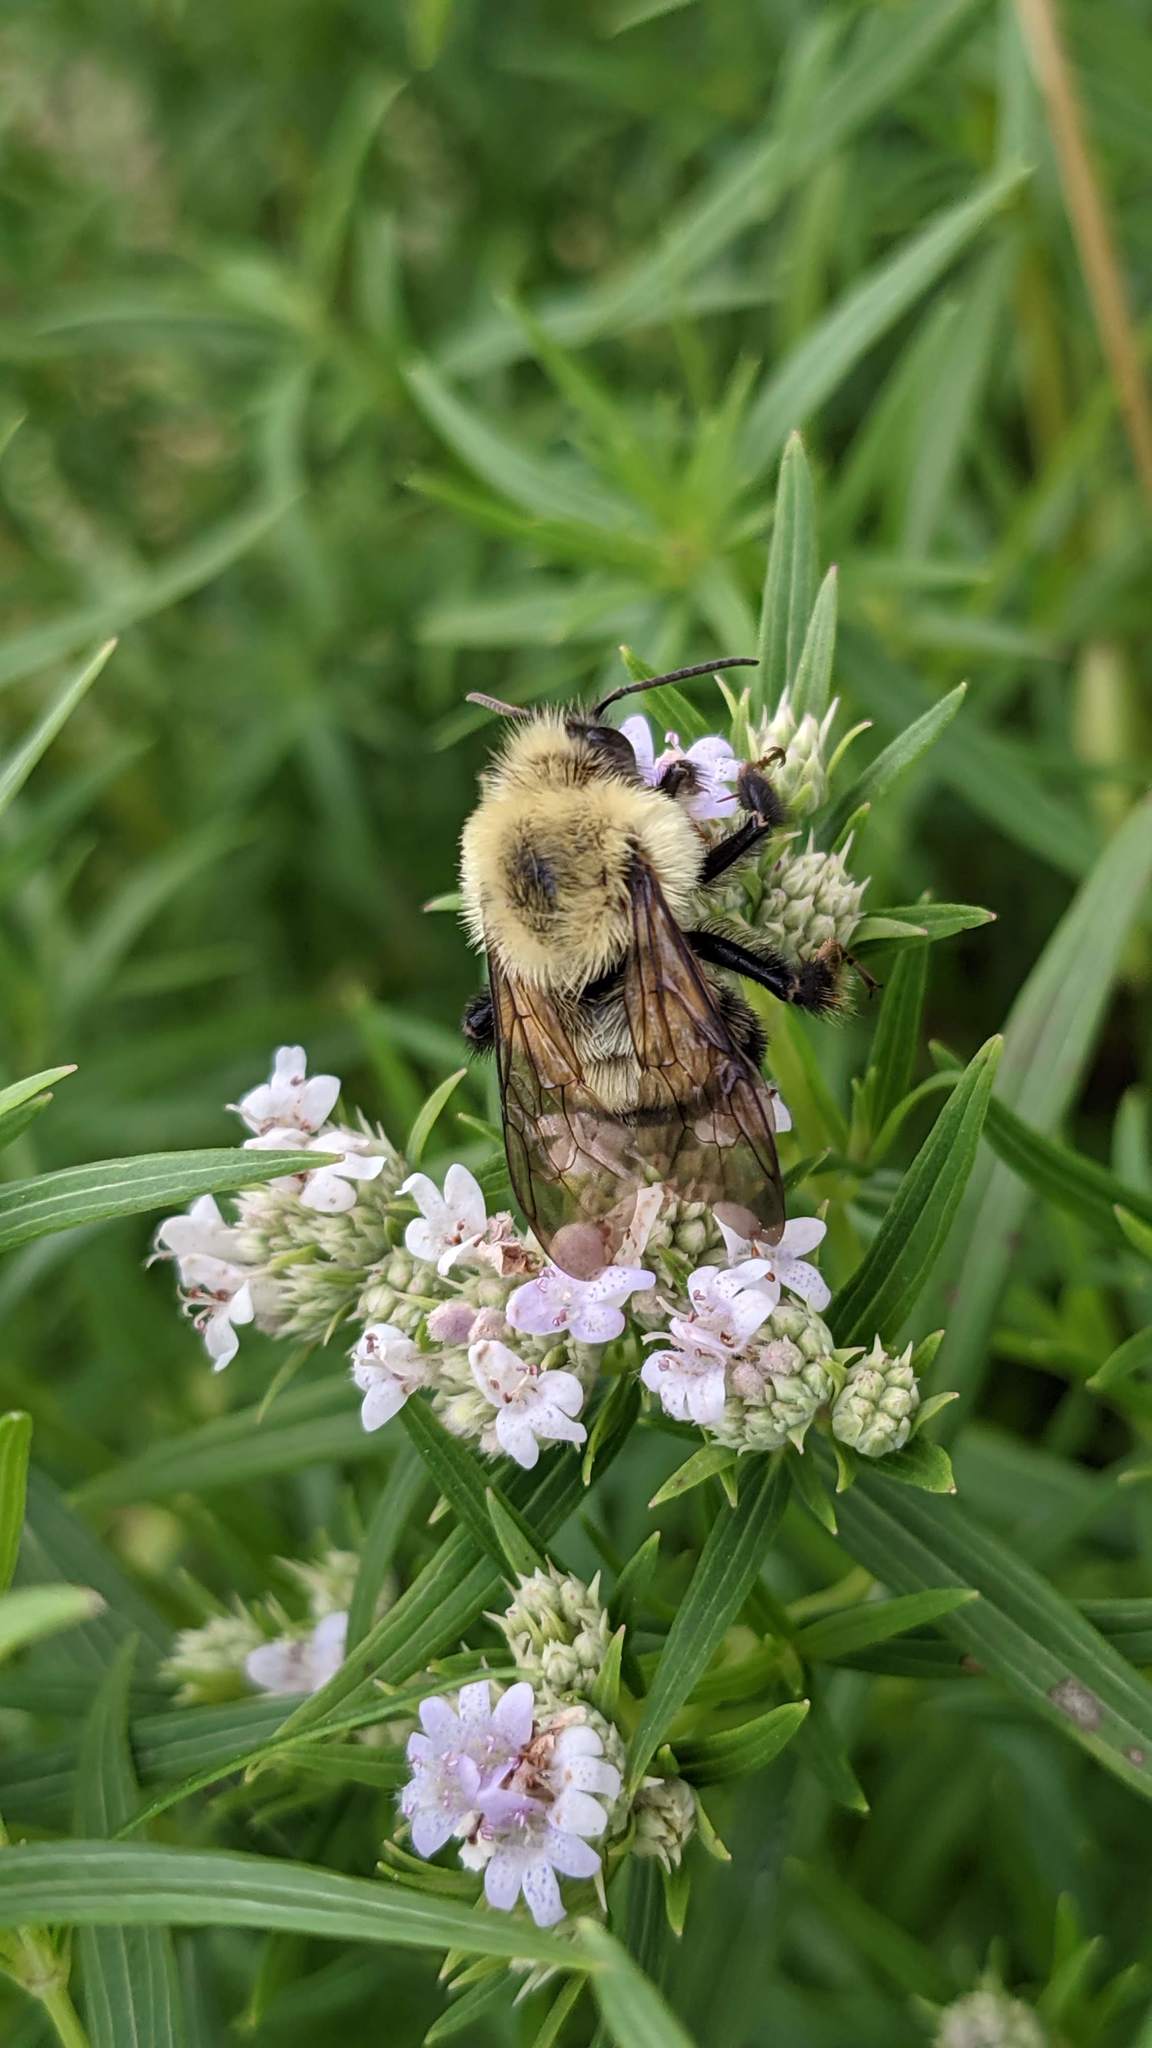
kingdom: Animalia
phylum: Arthropoda
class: Insecta
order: Hymenoptera
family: Apidae
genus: Bombus
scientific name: Bombus bimaculatus
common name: Two-spotted bumble bee
